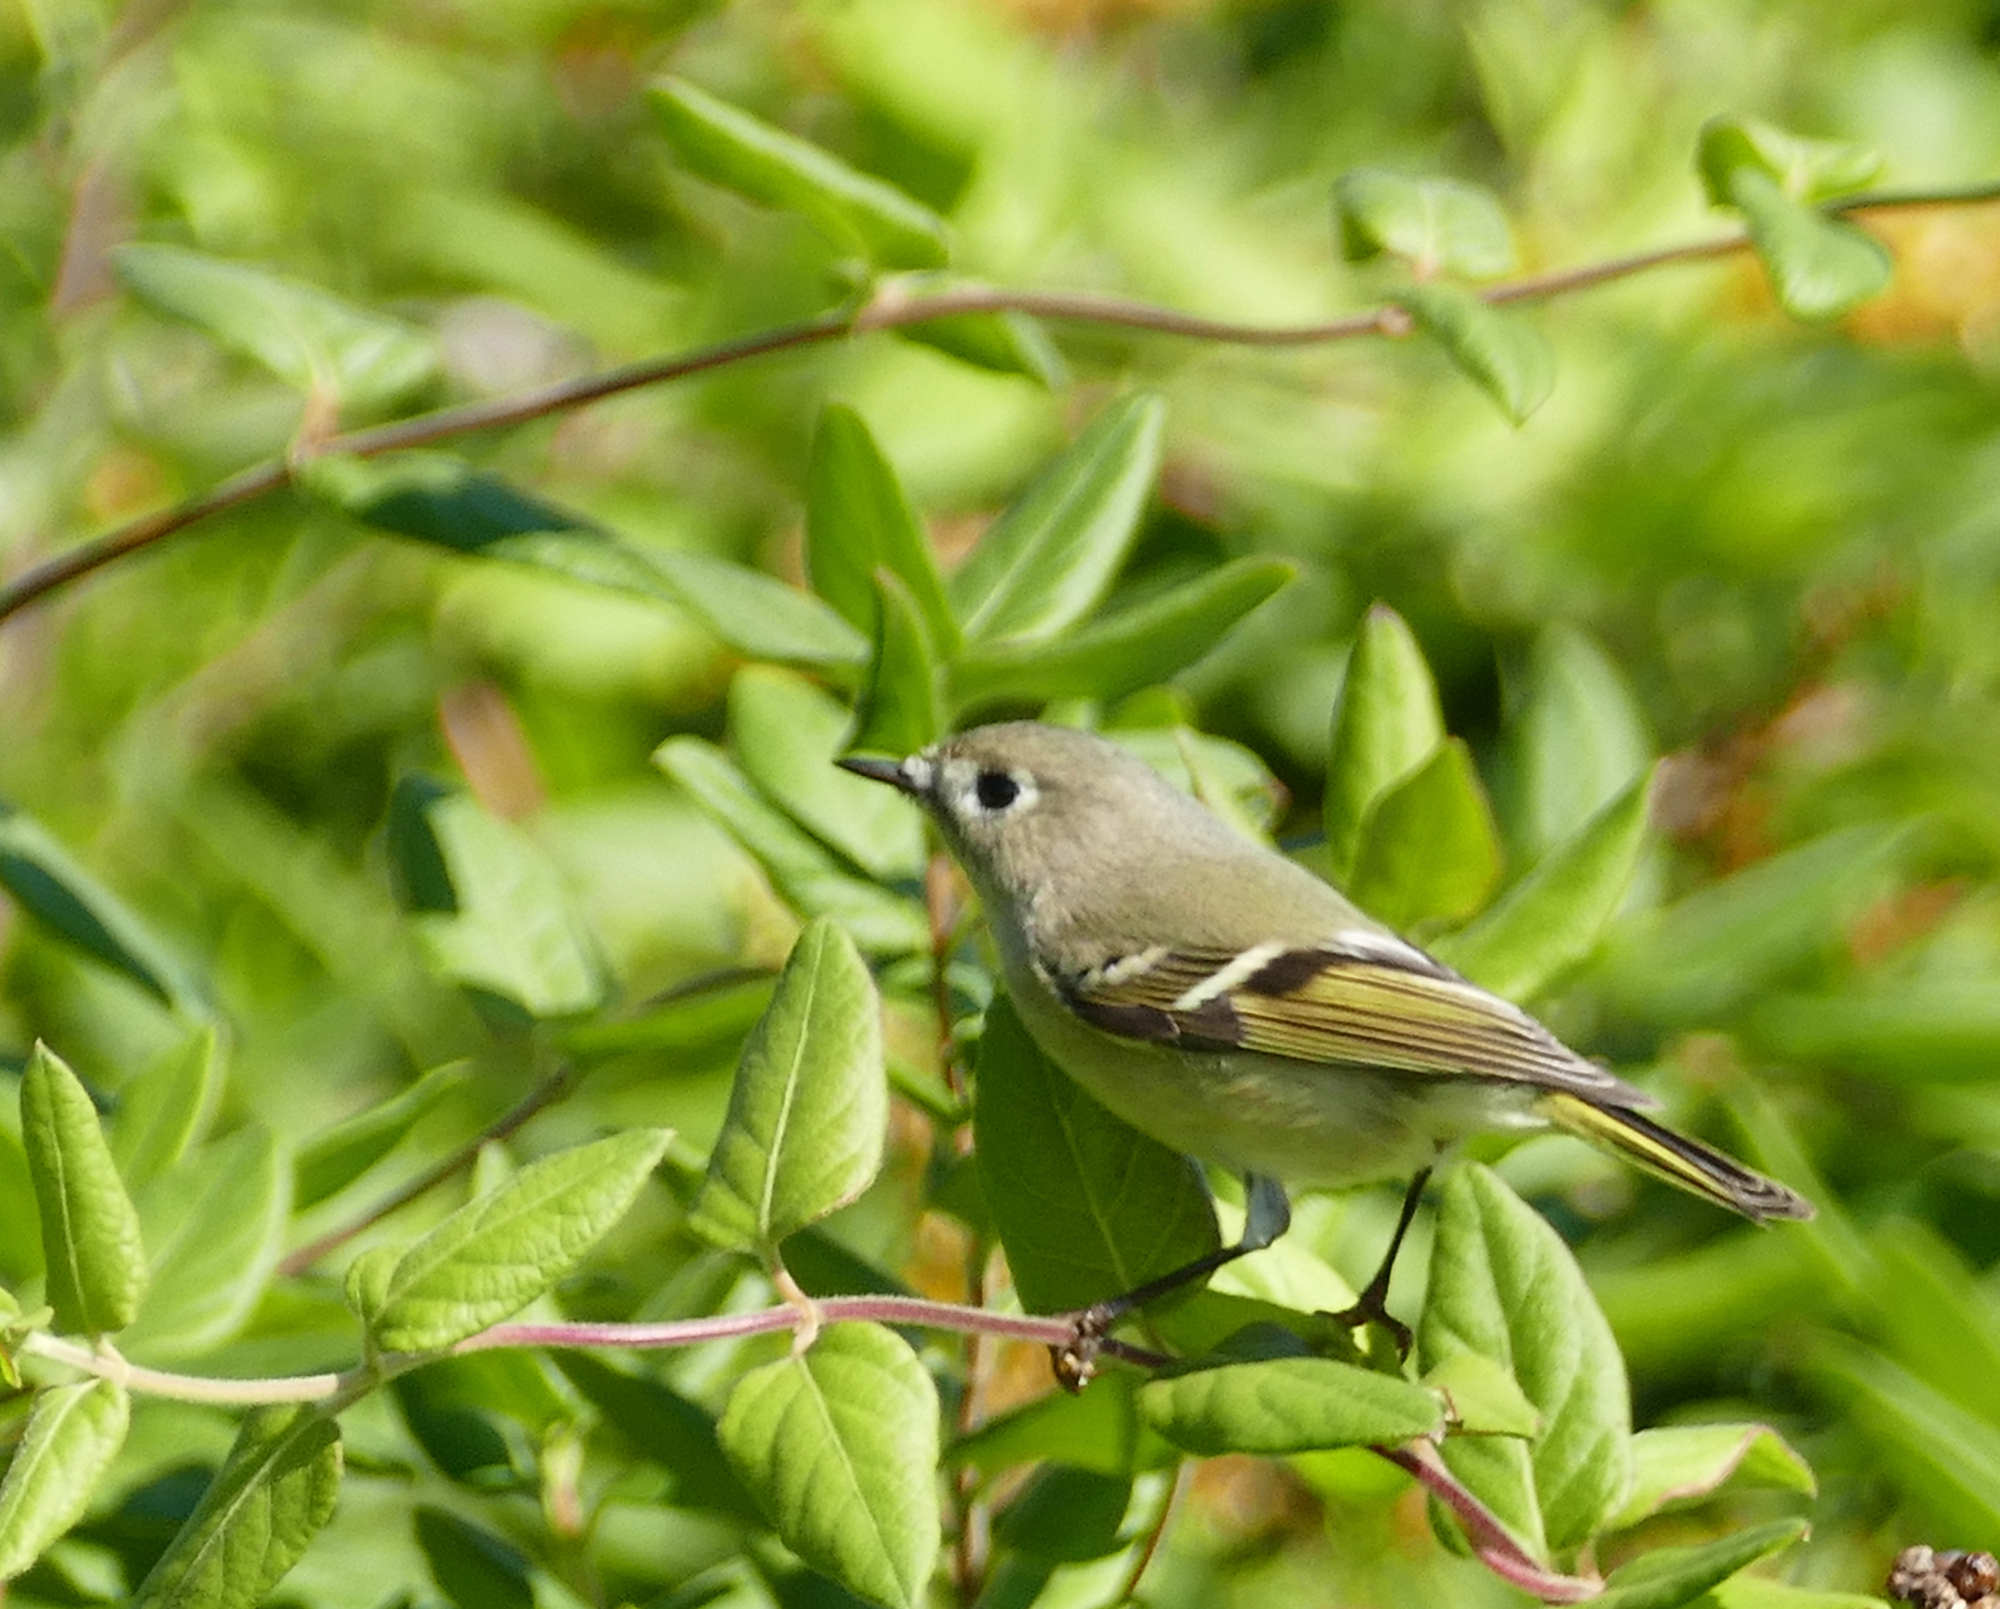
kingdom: Animalia
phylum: Chordata
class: Aves
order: Passeriformes
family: Regulidae
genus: Regulus
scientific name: Regulus calendula
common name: Ruby-crowned kinglet
